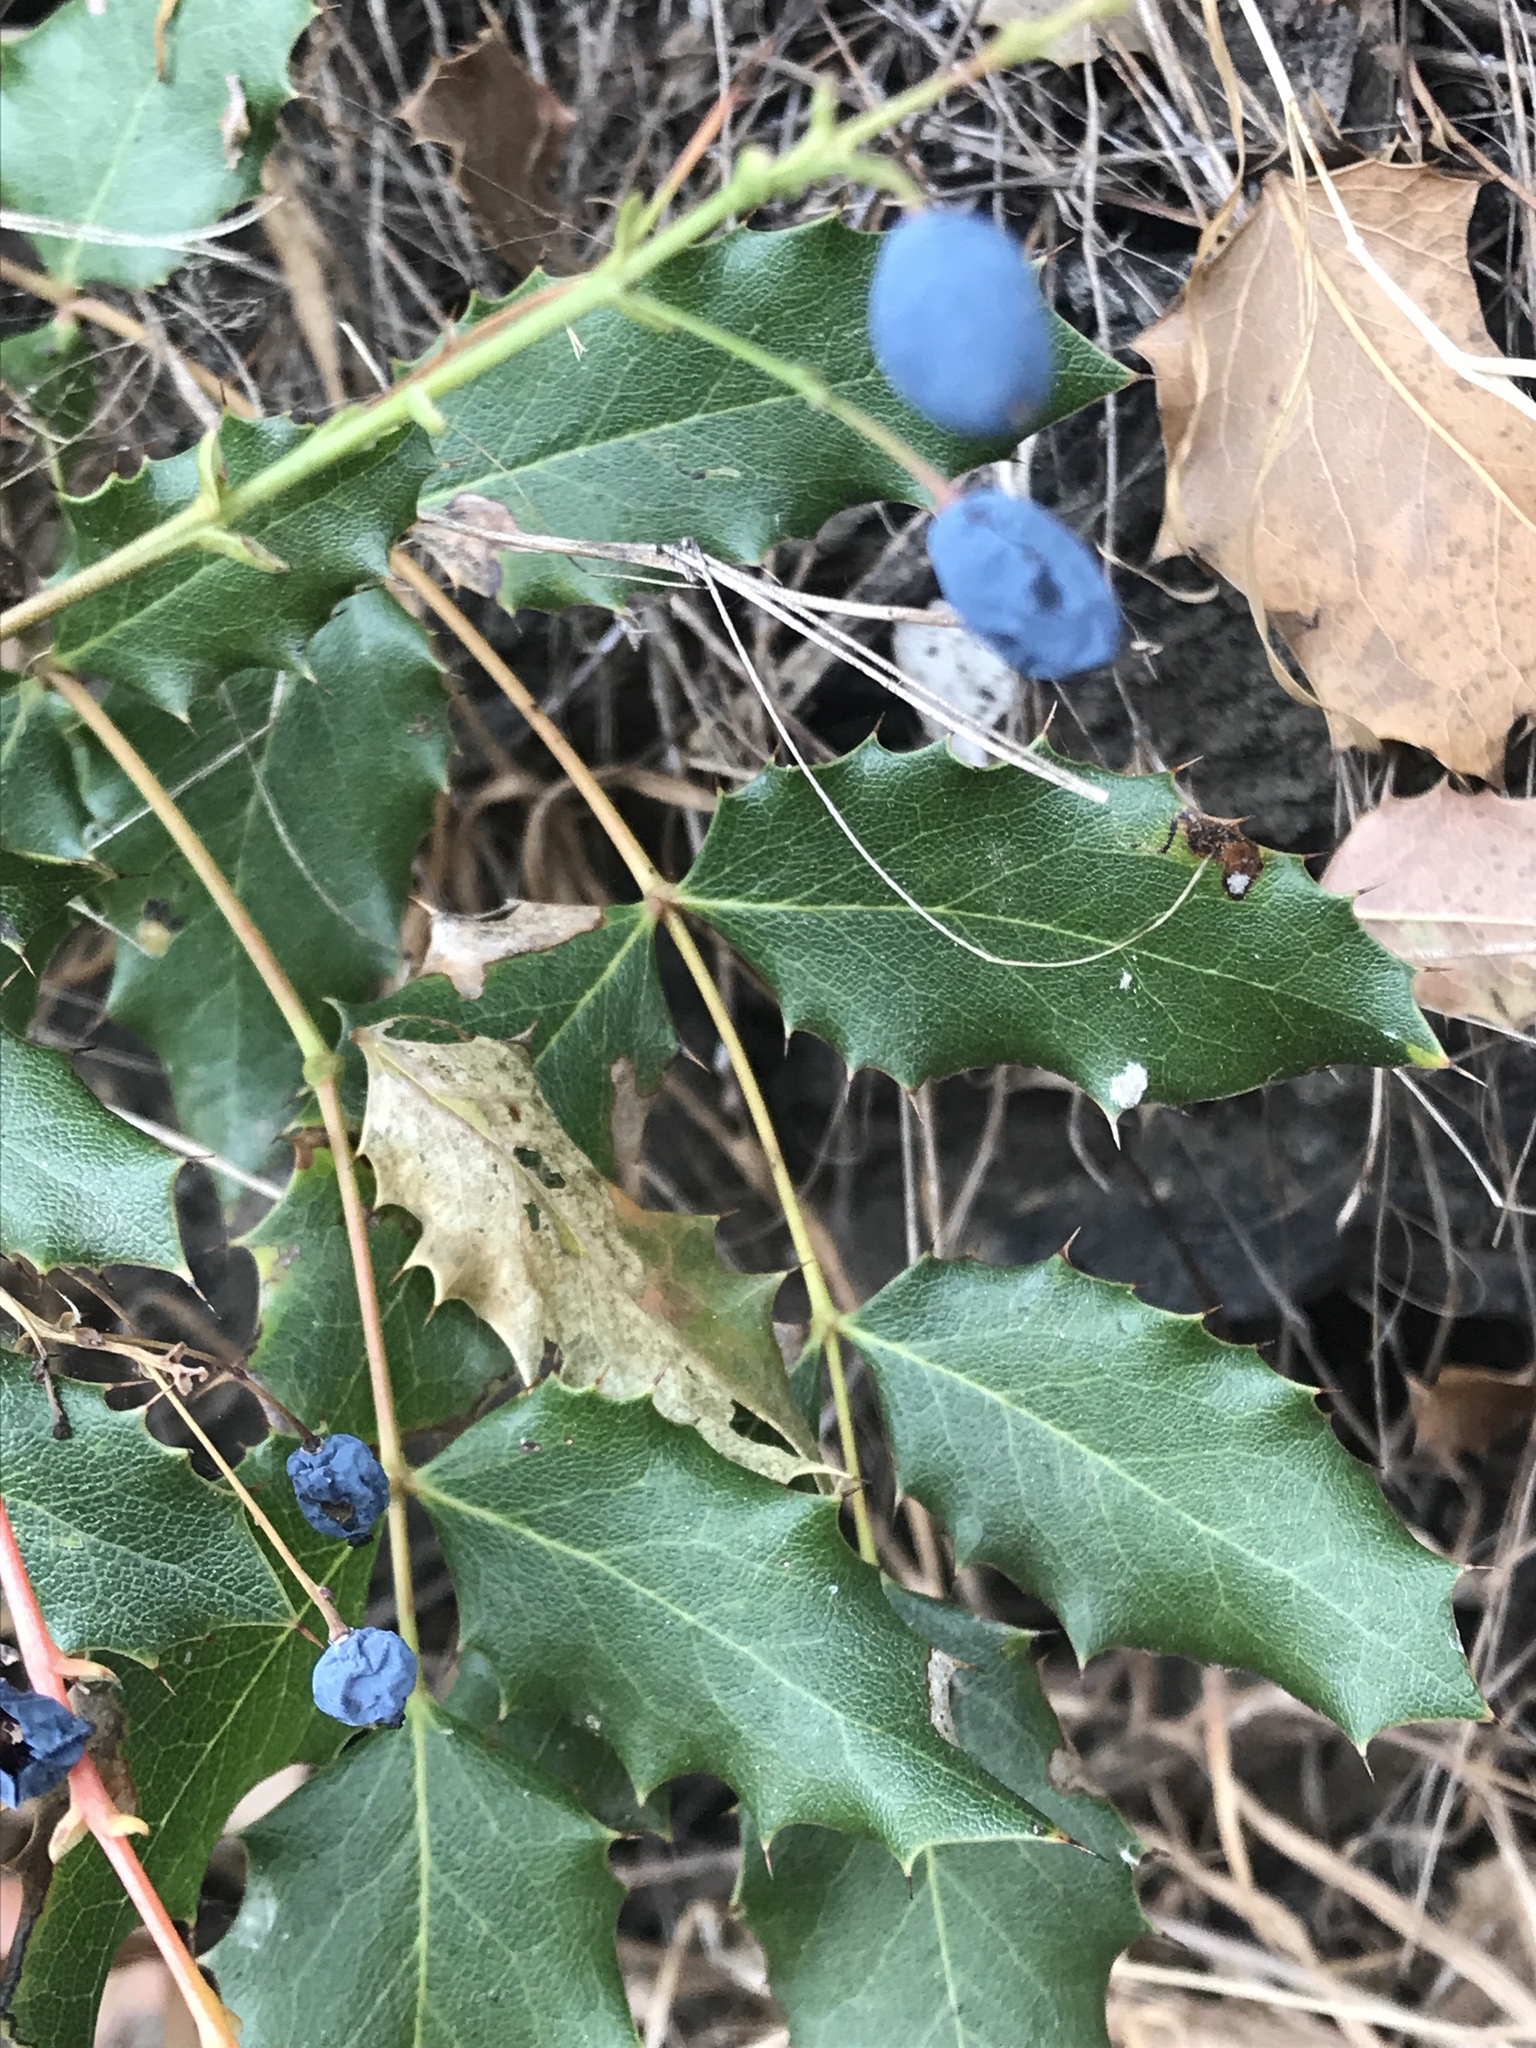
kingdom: Plantae
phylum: Tracheophyta
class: Magnoliopsida
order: Ranunculales
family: Berberidaceae
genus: Mahonia
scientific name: Mahonia aquifolium
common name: Oregon-grape
